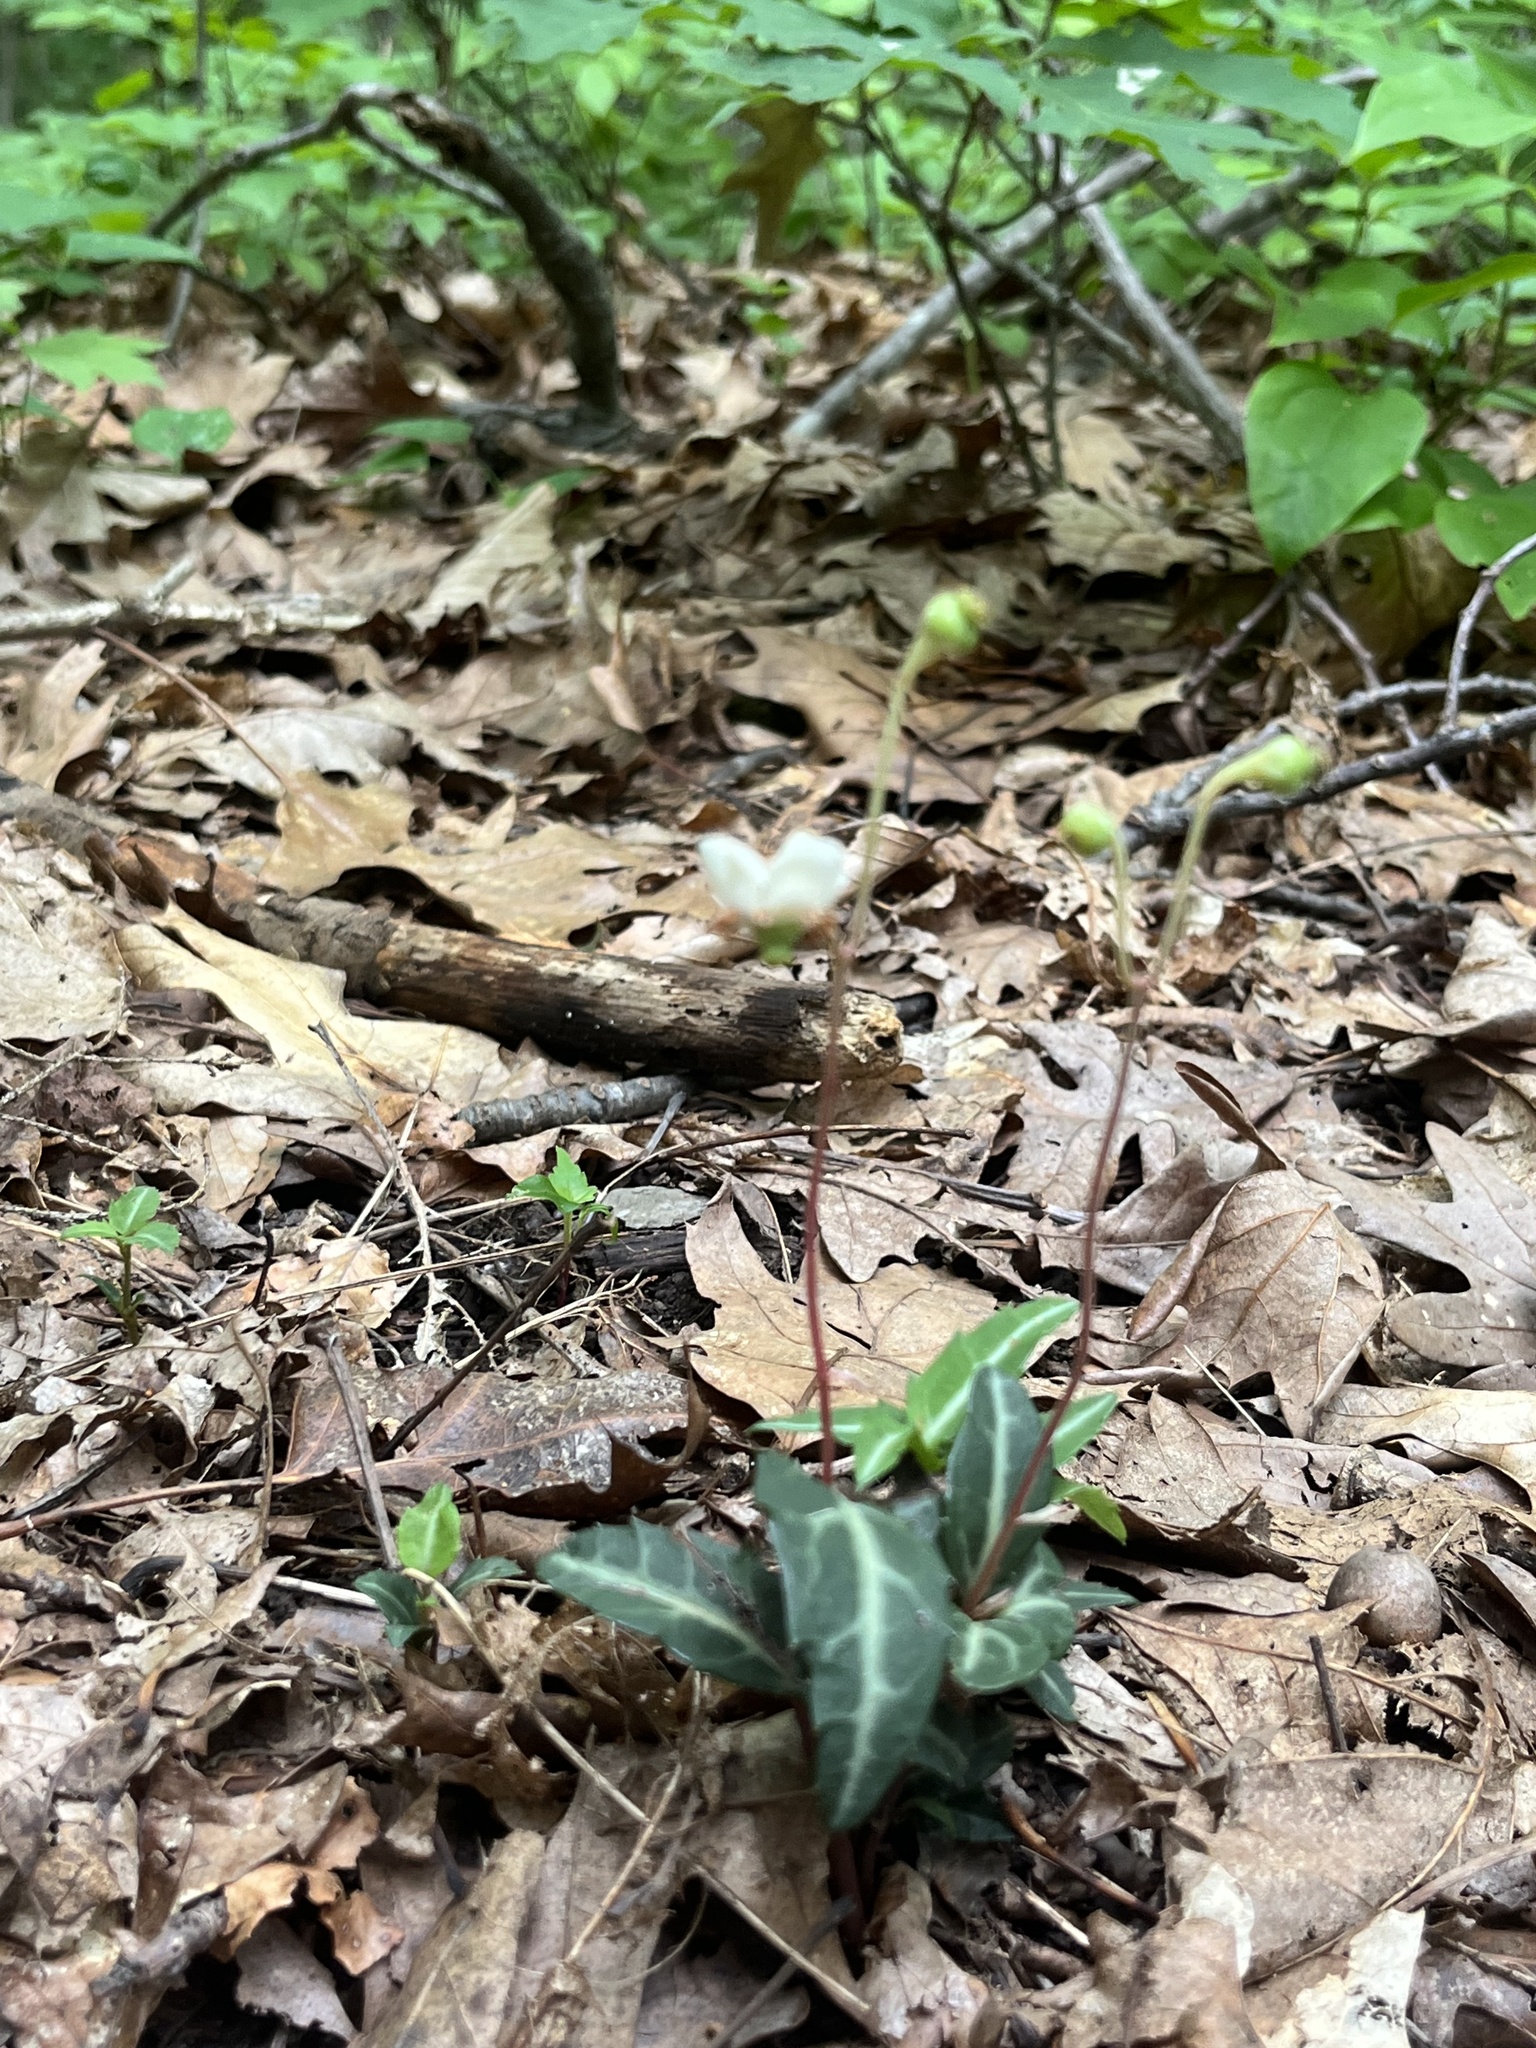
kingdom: Plantae
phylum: Tracheophyta
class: Magnoliopsida
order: Ericales
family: Ericaceae
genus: Chimaphila
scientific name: Chimaphila maculata
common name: Spotted pipsissewa
